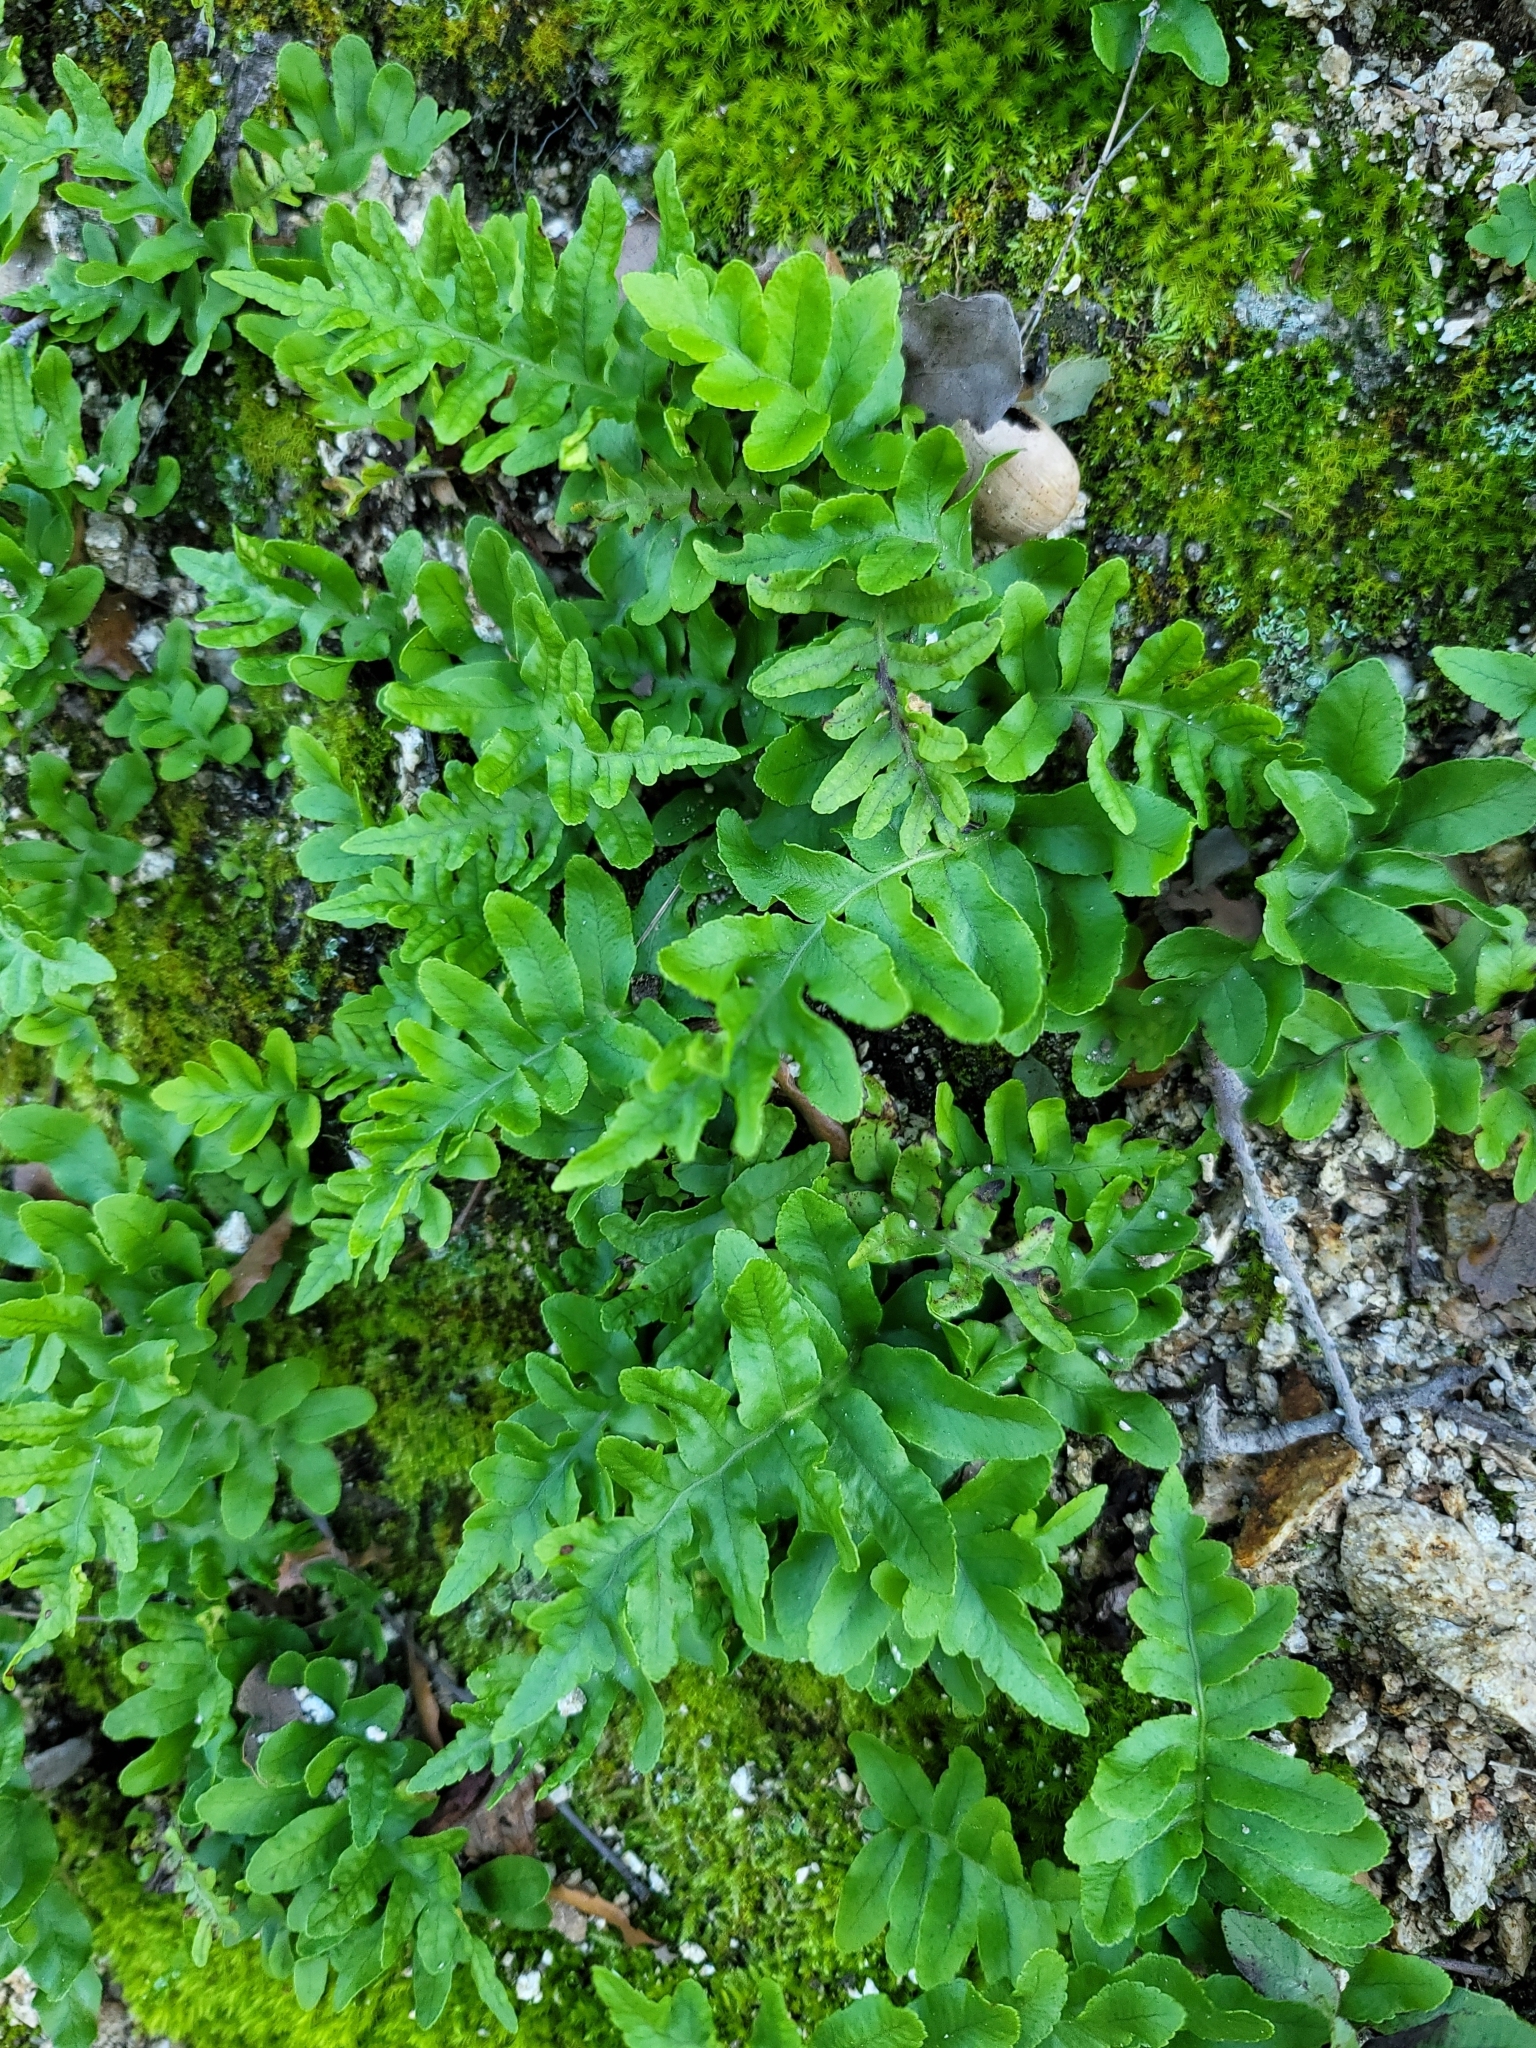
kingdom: Plantae
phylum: Tracheophyta
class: Polypodiopsida
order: Polypodiales
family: Polypodiaceae
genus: Polypodium
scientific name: Polypodium californicum
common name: California polypody
